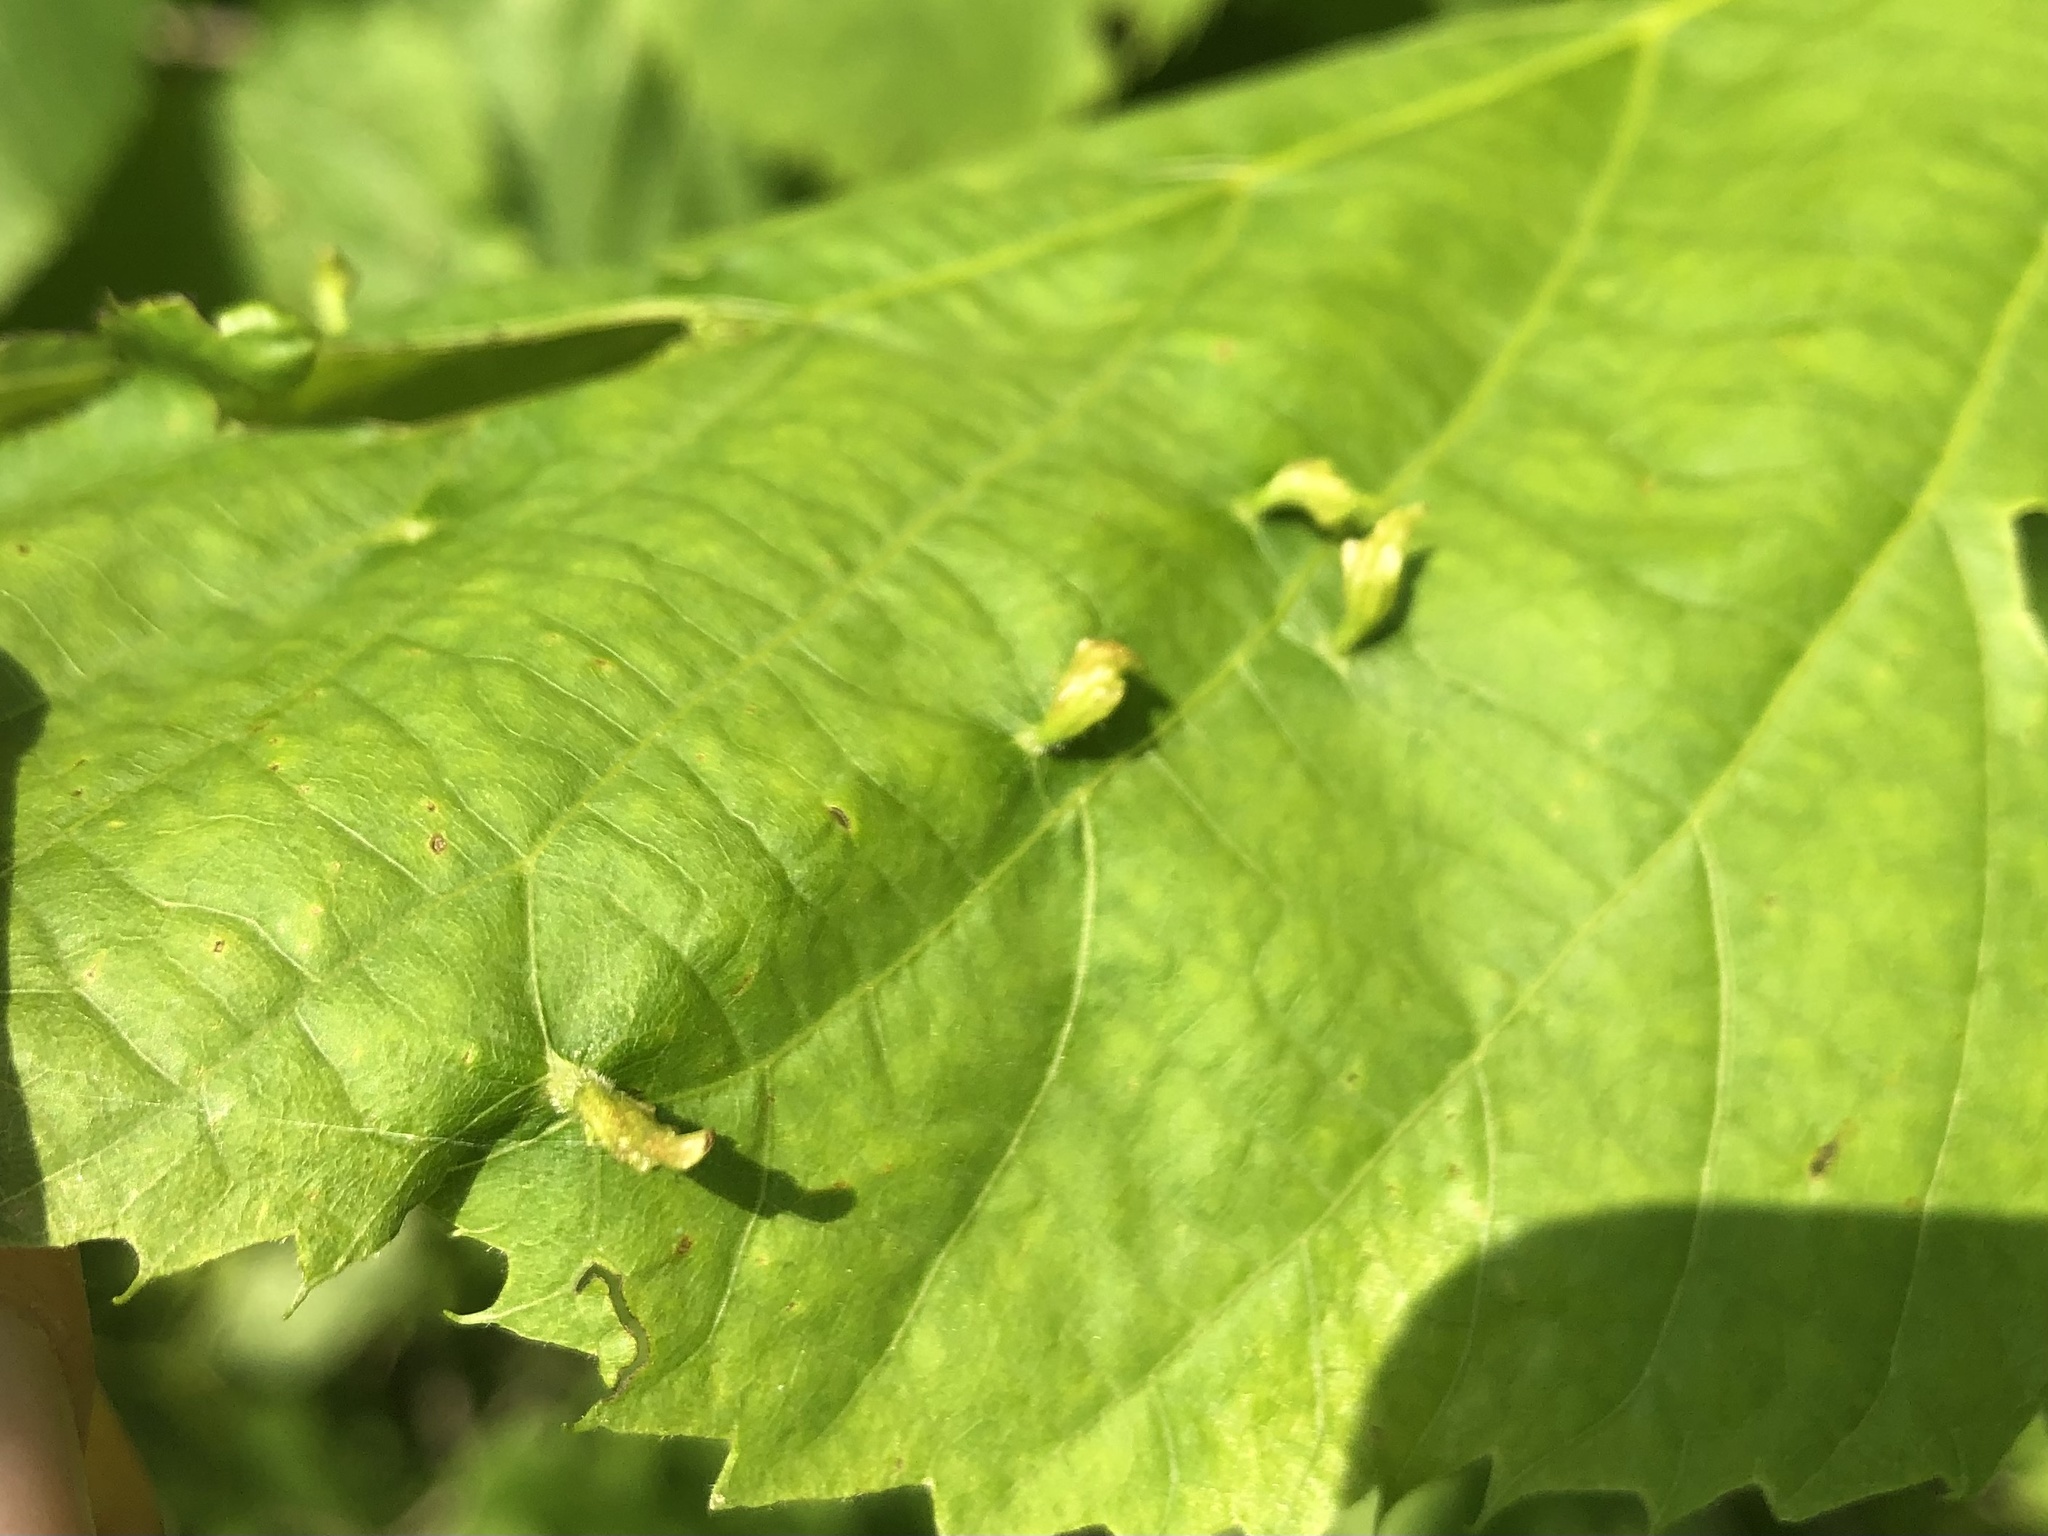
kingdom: Animalia
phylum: Arthropoda
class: Arachnida
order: Trombidiformes
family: Eriophyidae
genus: Eriophyes
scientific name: Eriophyes tiliae
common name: Red nail gall mite
